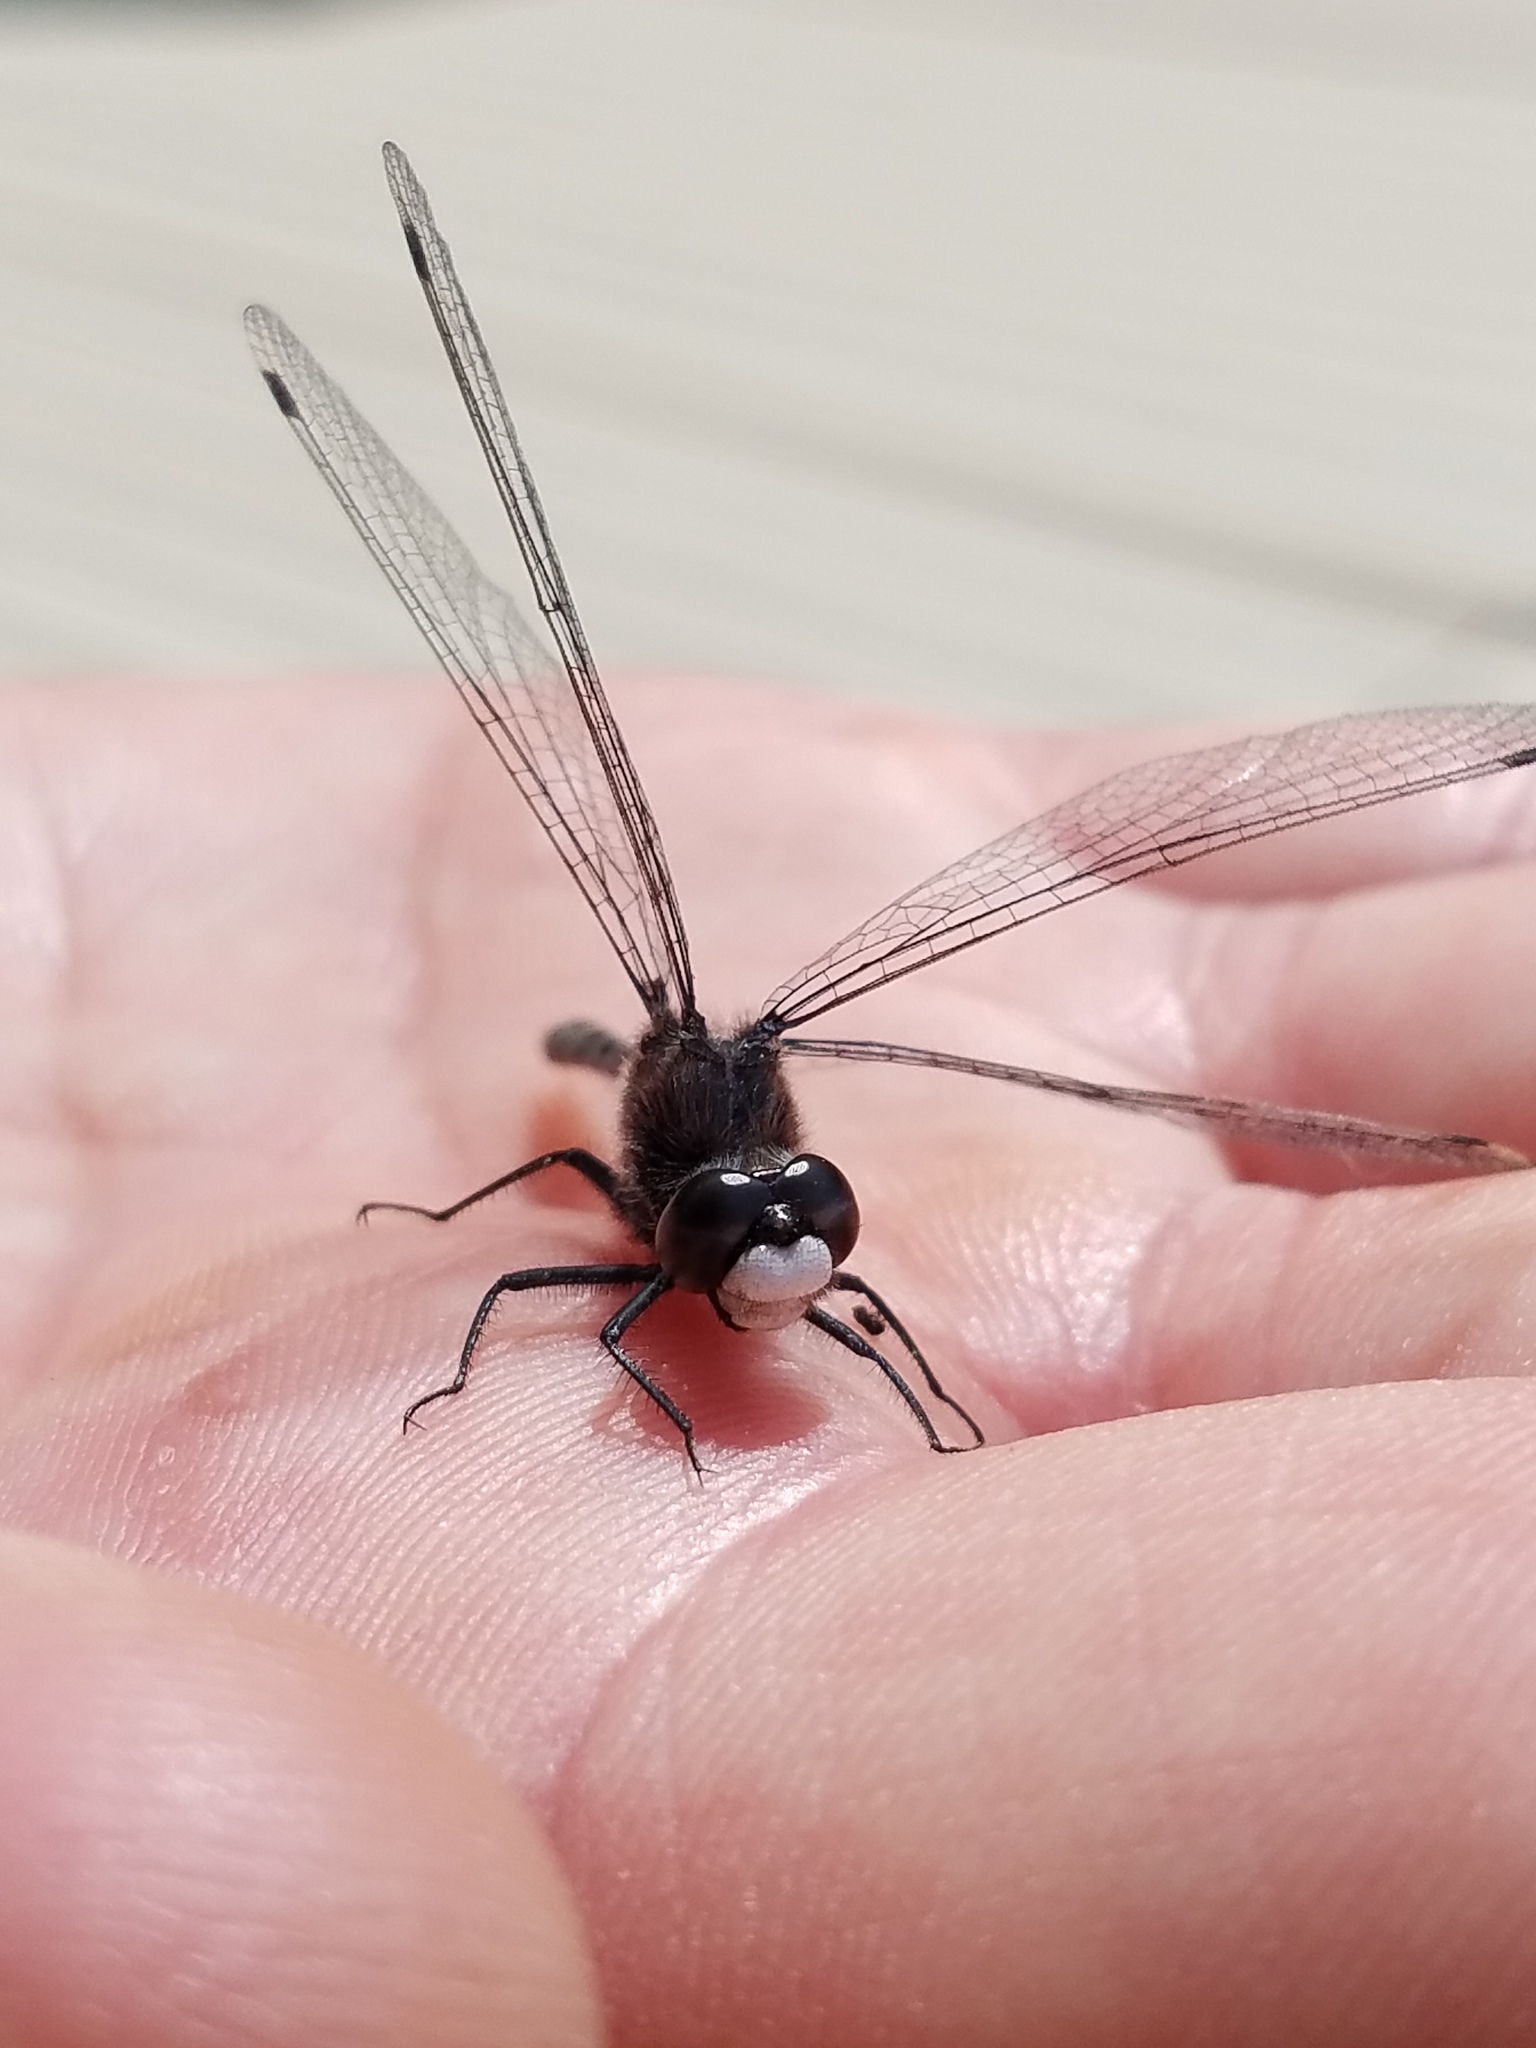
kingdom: Animalia
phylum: Arthropoda
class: Insecta
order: Odonata
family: Libellulidae
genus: Leucorrhinia
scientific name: Leucorrhinia intacta
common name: Dot-tailed whiteface
